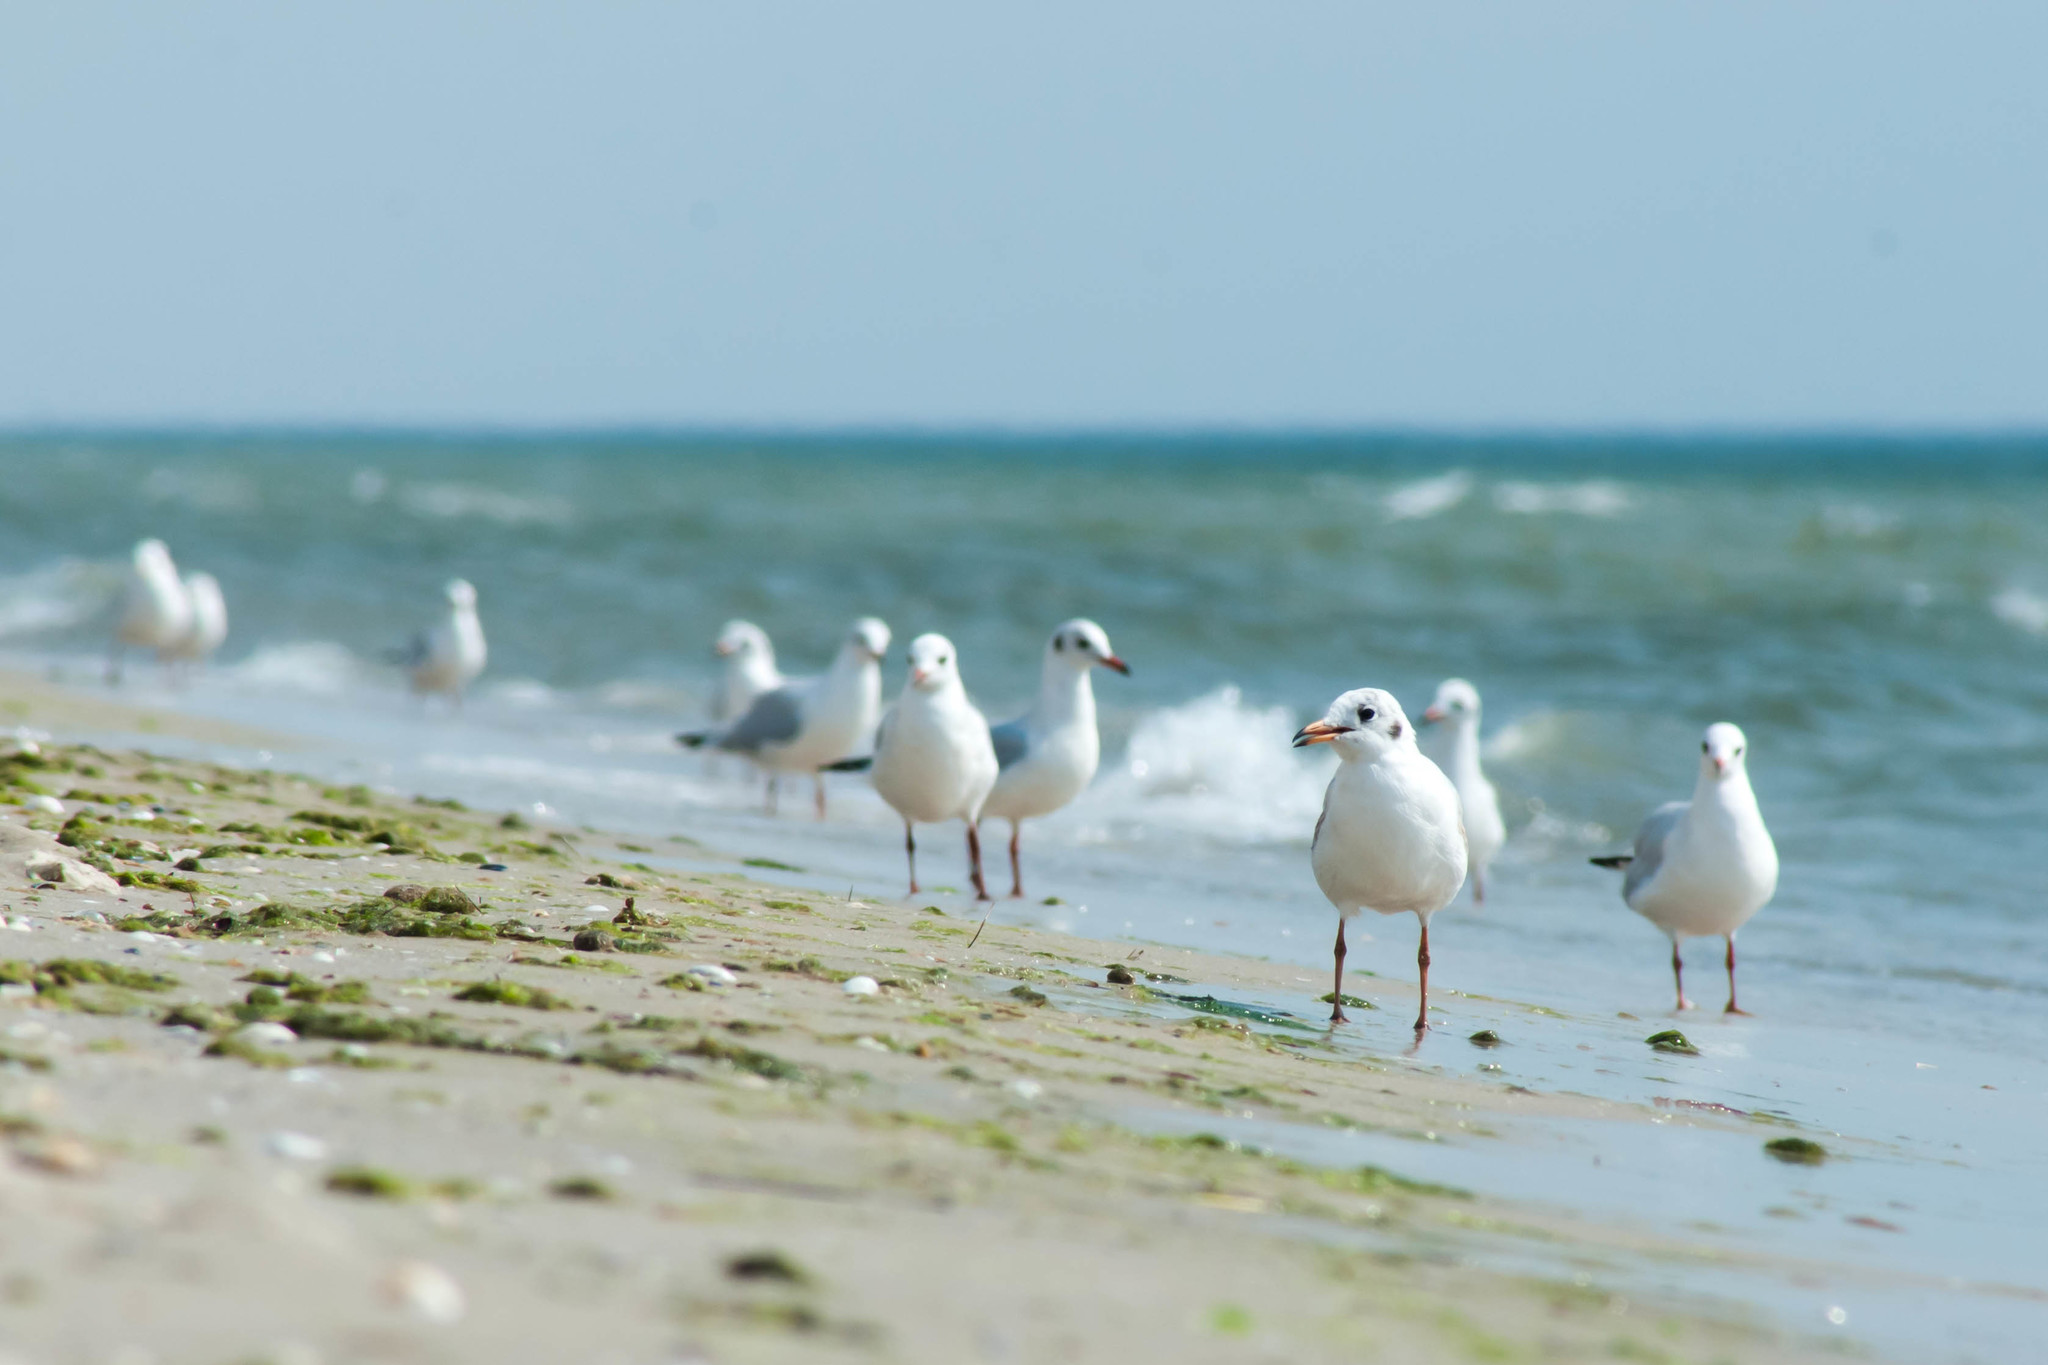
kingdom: Animalia
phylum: Chordata
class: Aves
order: Charadriiformes
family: Laridae
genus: Chroicocephalus
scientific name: Chroicocephalus ridibundus
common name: Black-headed gull
